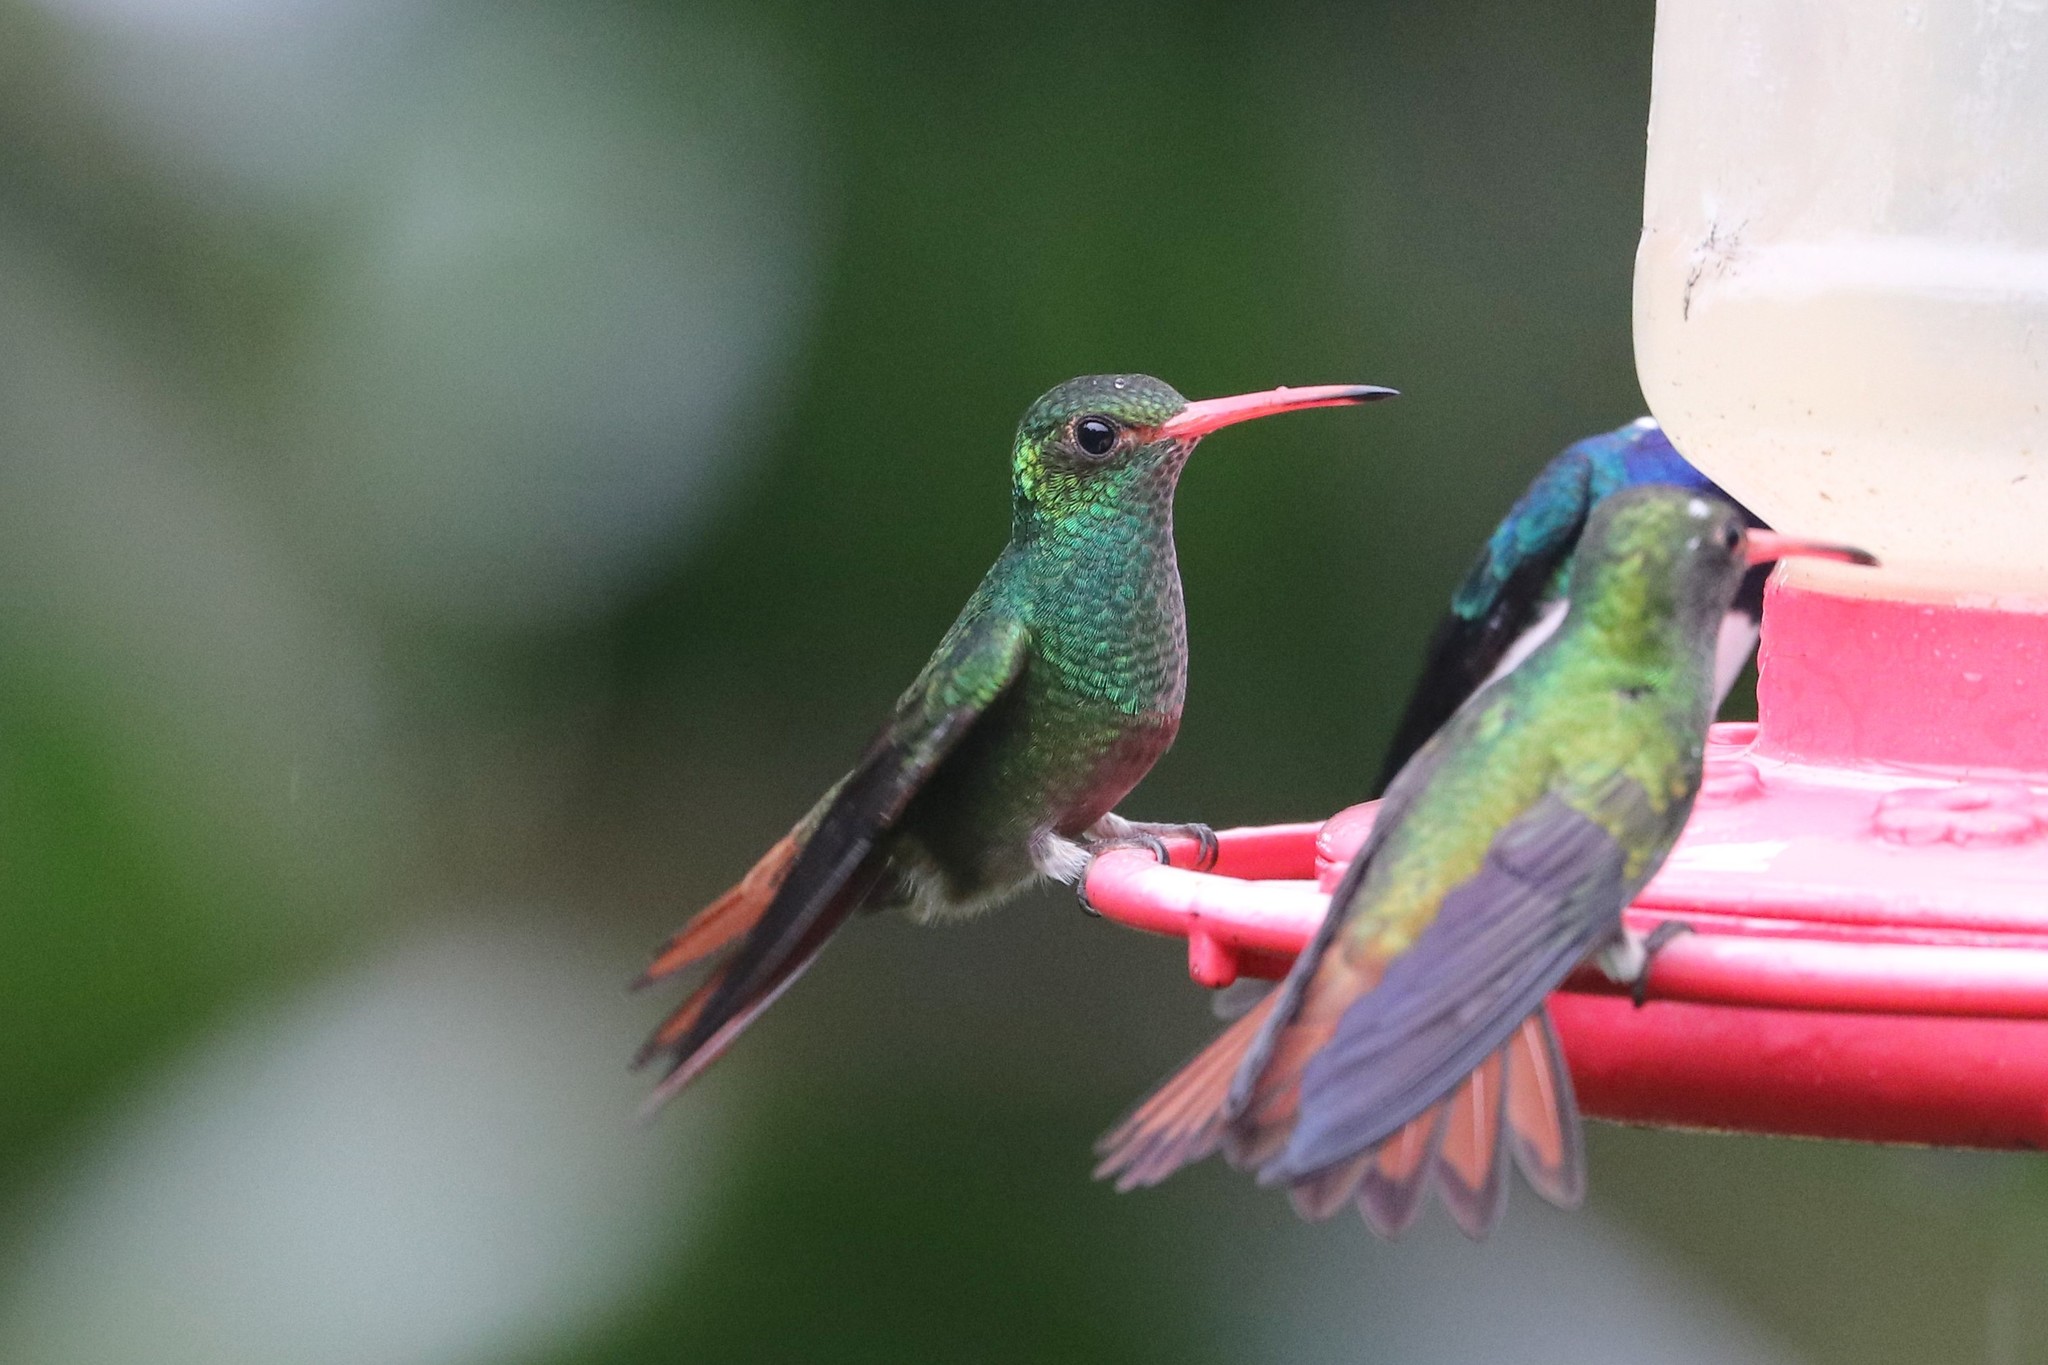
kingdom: Animalia
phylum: Chordata
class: Aves
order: Apodiformes
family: Trochilidae
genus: Amazilia
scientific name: Amazilia tzacatl
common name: Rufous-tailed hummingbird
